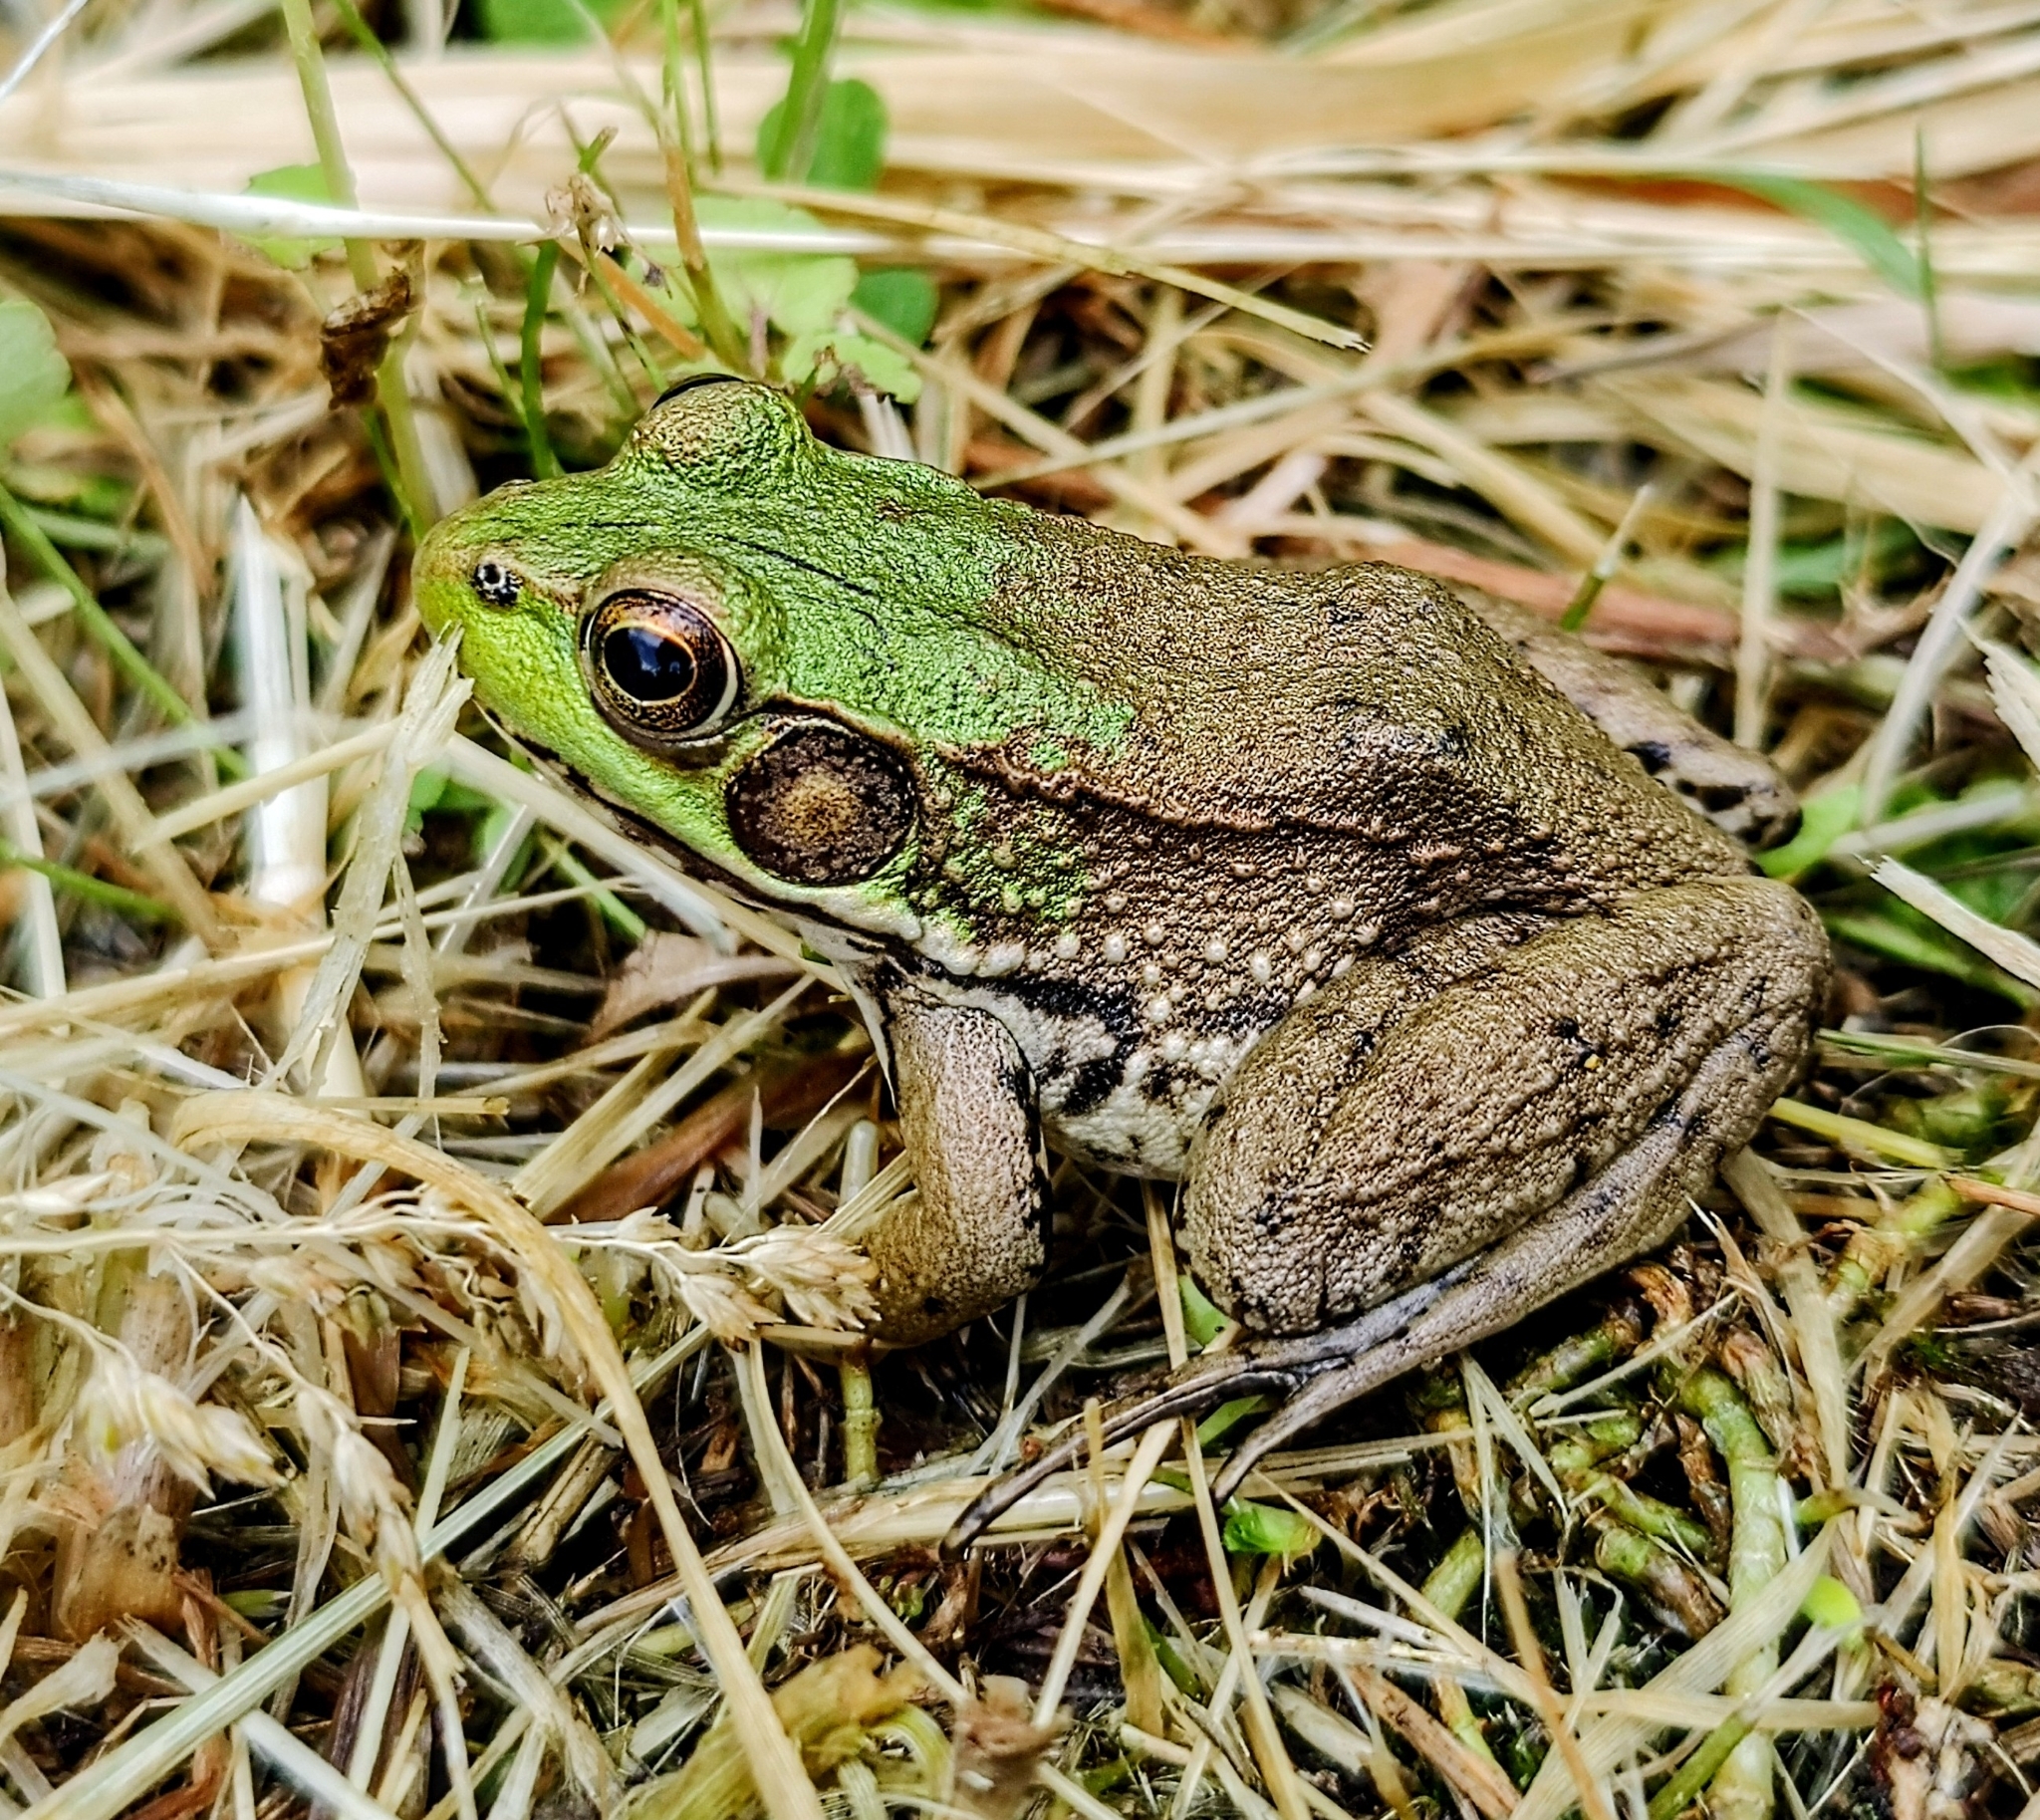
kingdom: Animalia
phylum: Chordata
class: Amphibia
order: Anura
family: Ranidae
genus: Lithobates
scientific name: Lithobates clamitans
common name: Green frog
